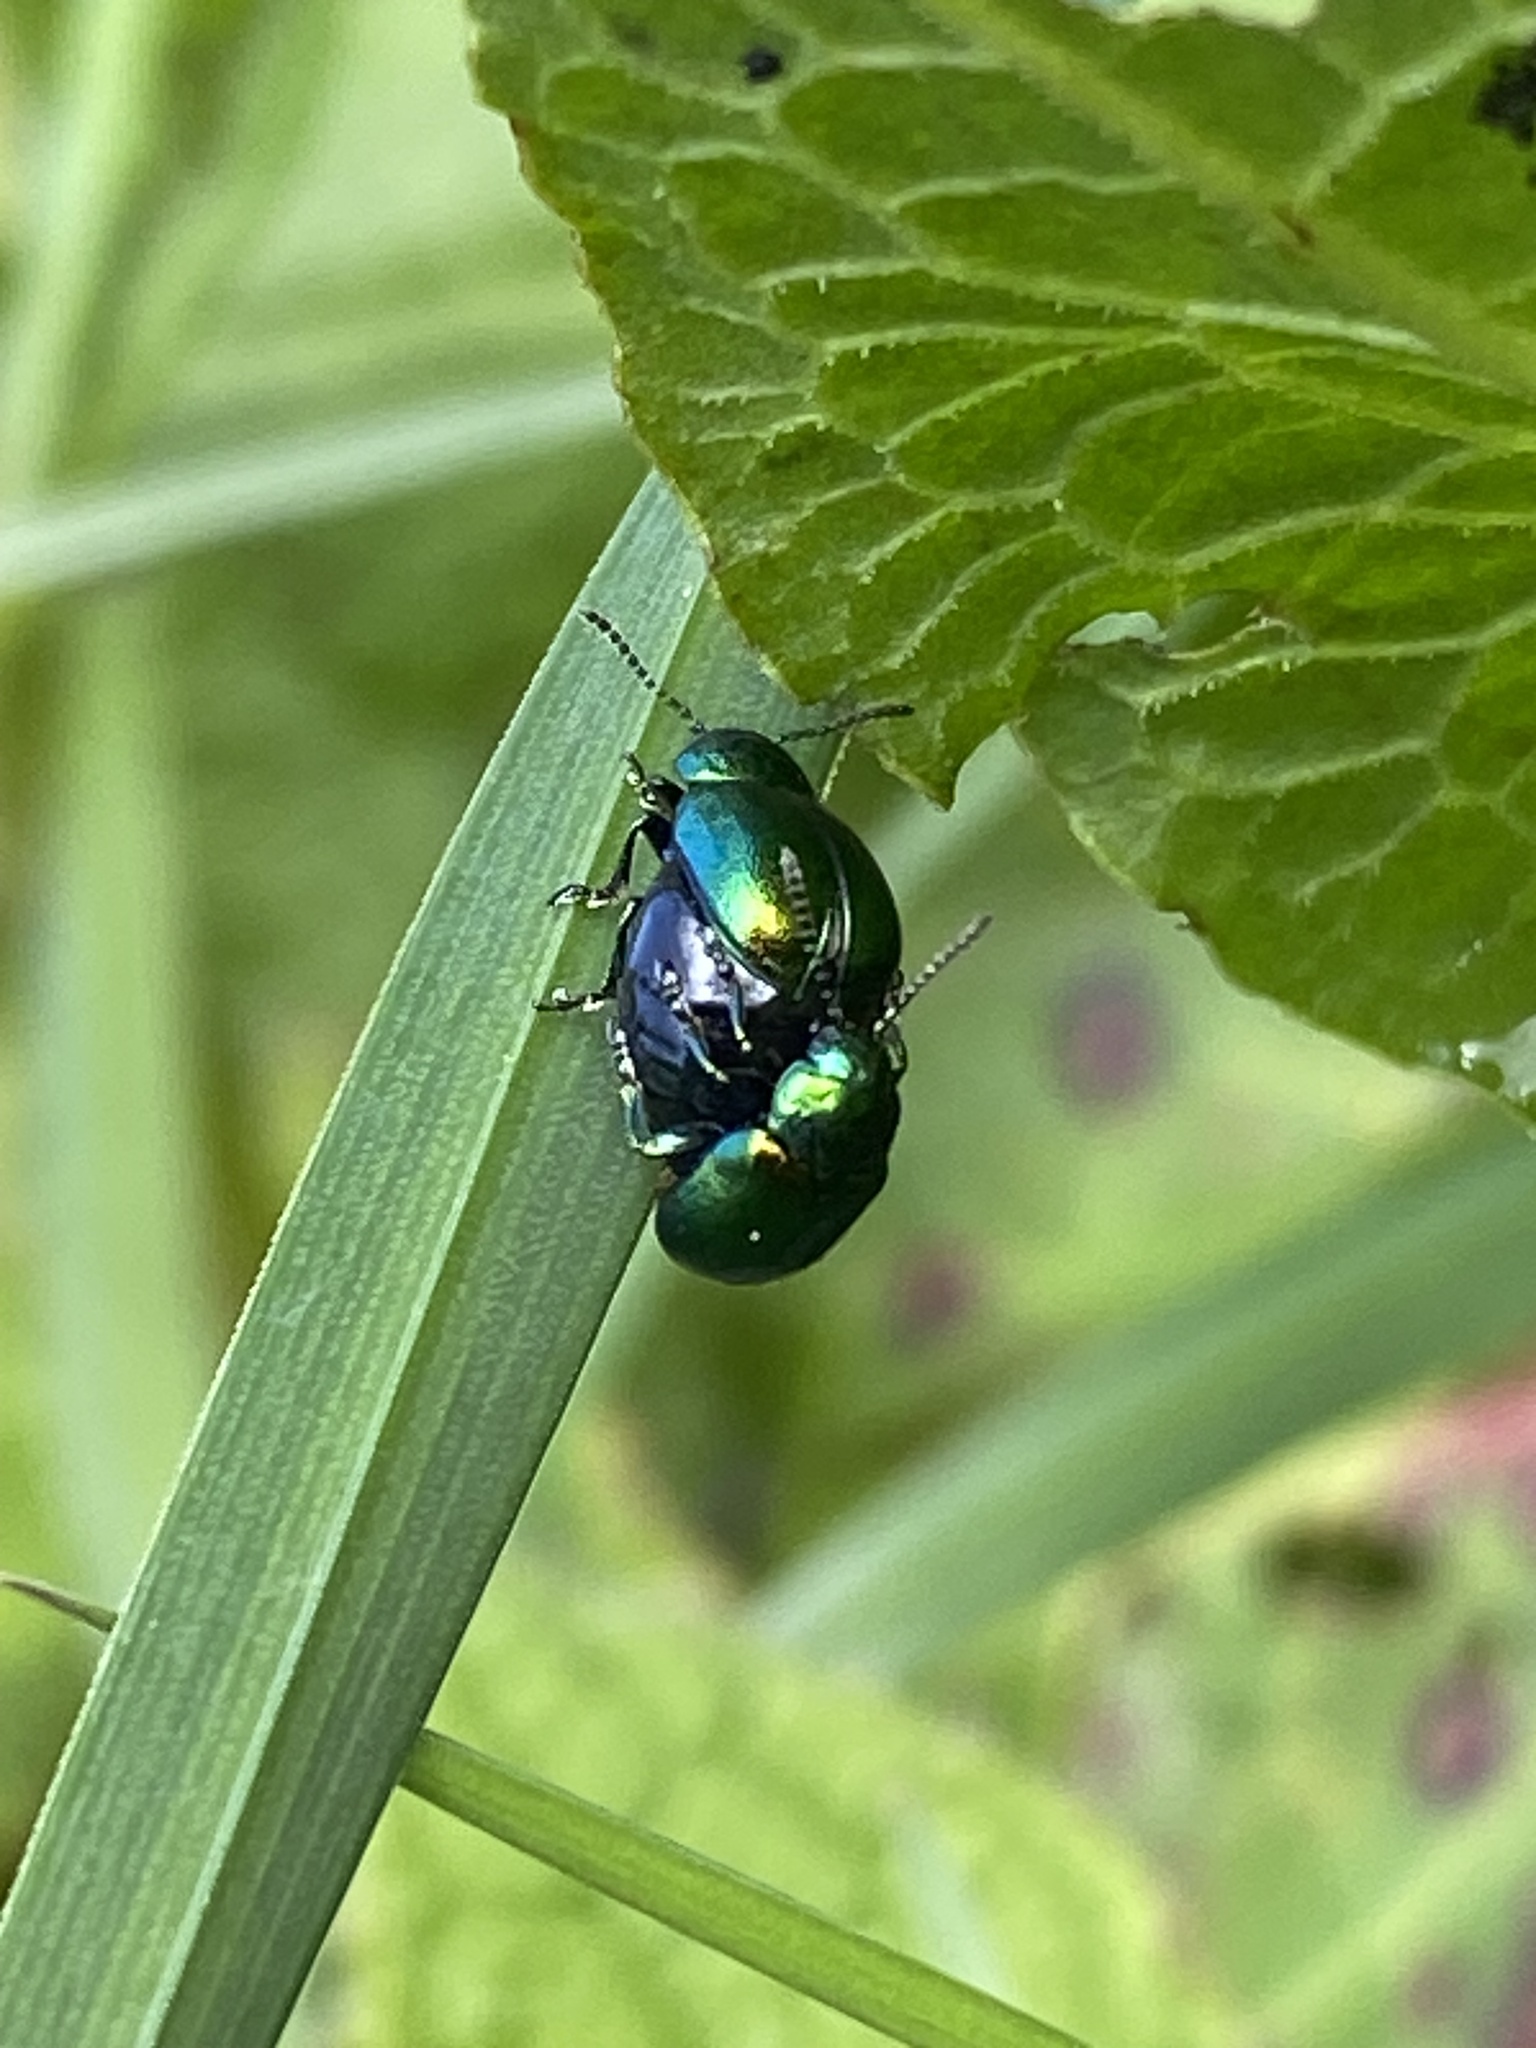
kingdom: Animalia
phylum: Arthropoda
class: Insecta
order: Coleoptera
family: Chrysomelidae
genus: Gastrophysa
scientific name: Gastrophysa viridula
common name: Green dock beetle
